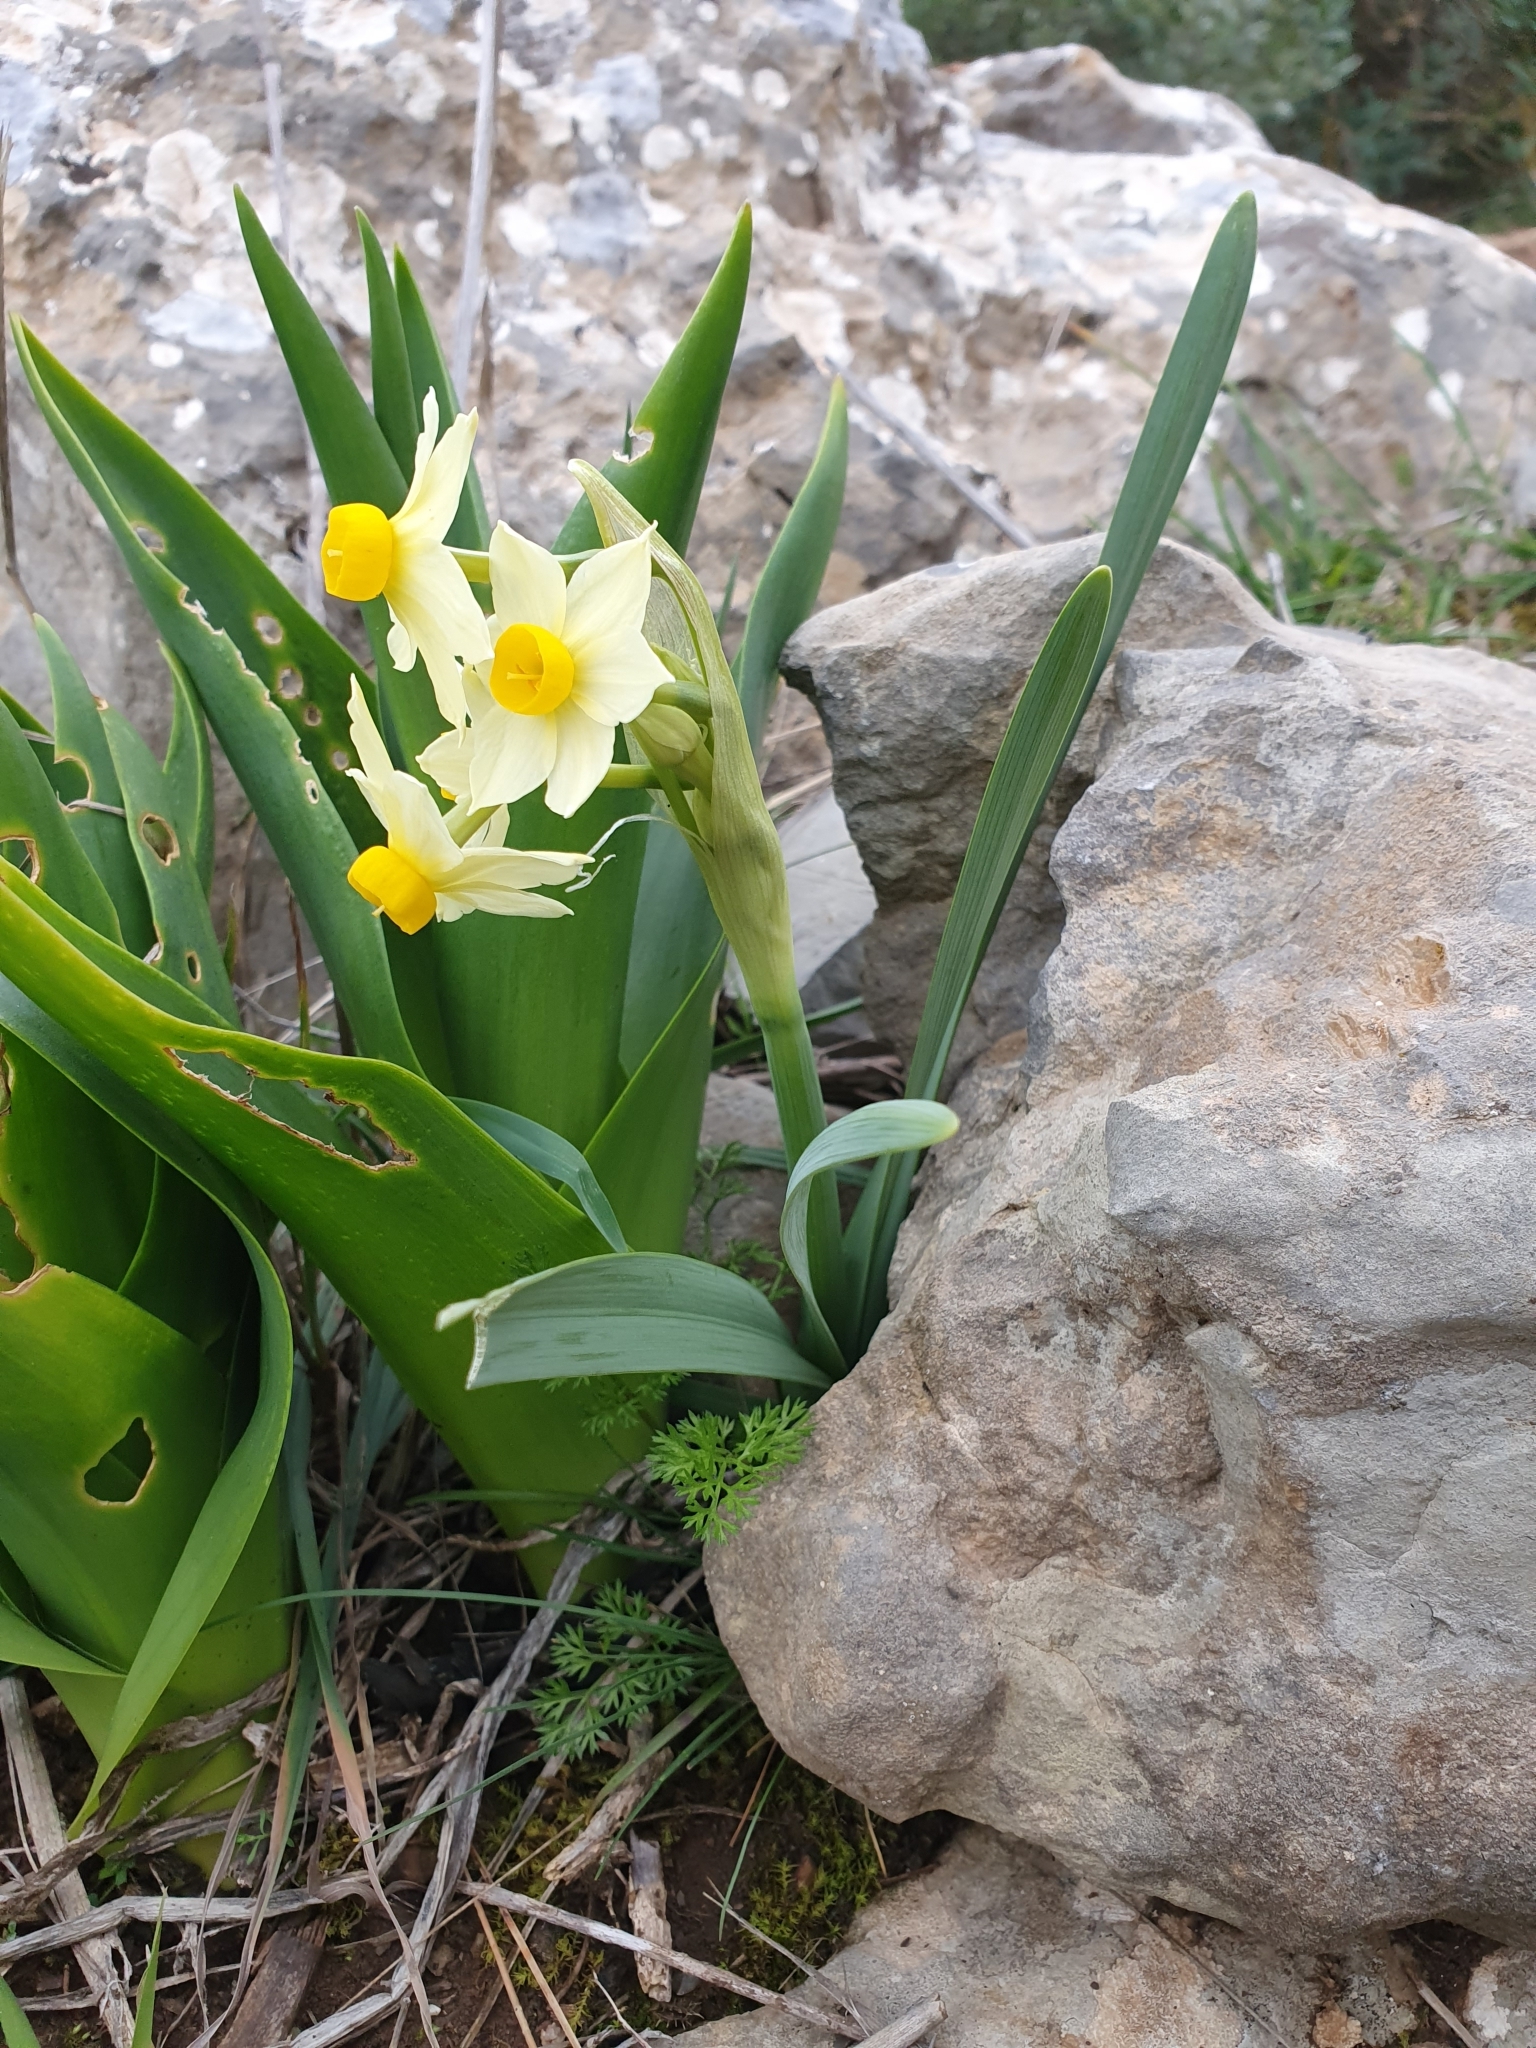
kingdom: Plantae
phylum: Tracheophyta
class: Liliopsida
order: Asparagales
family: Amaryllidaceae
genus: Narcissus
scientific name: Narcissus tazetta
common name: Bunch-flowered daffodil
